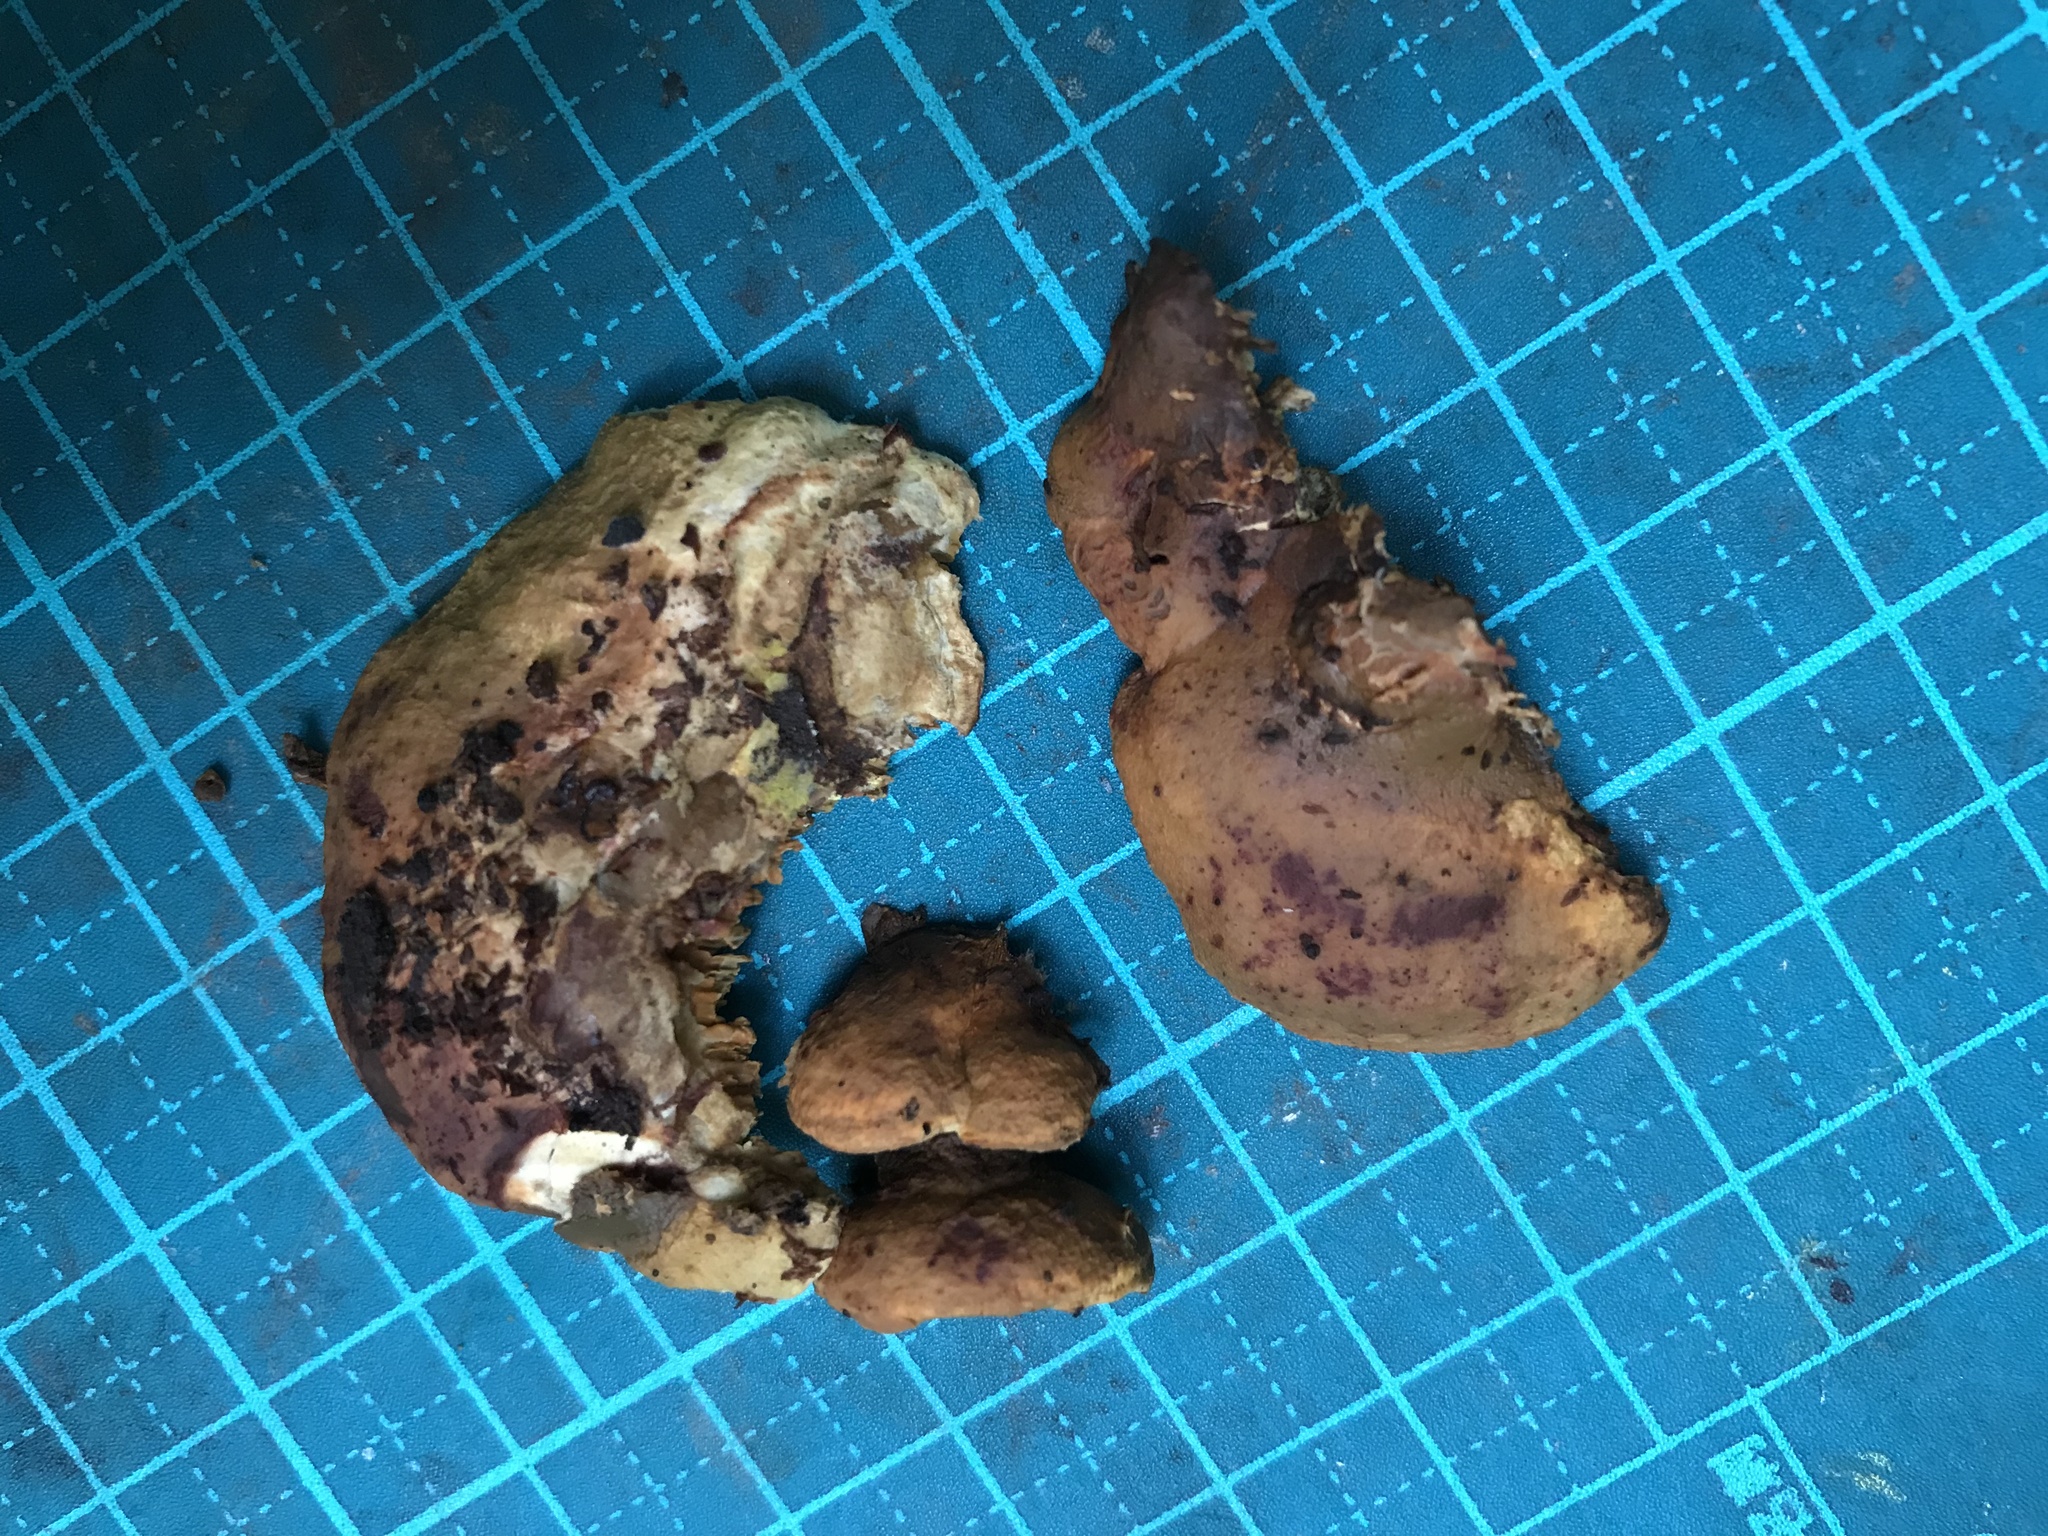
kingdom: Fungi
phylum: Basidiomycota
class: Agaricomycetes
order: Boletales
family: Paxillaceae
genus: Meiorganum
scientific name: Meiorganum curtisii
